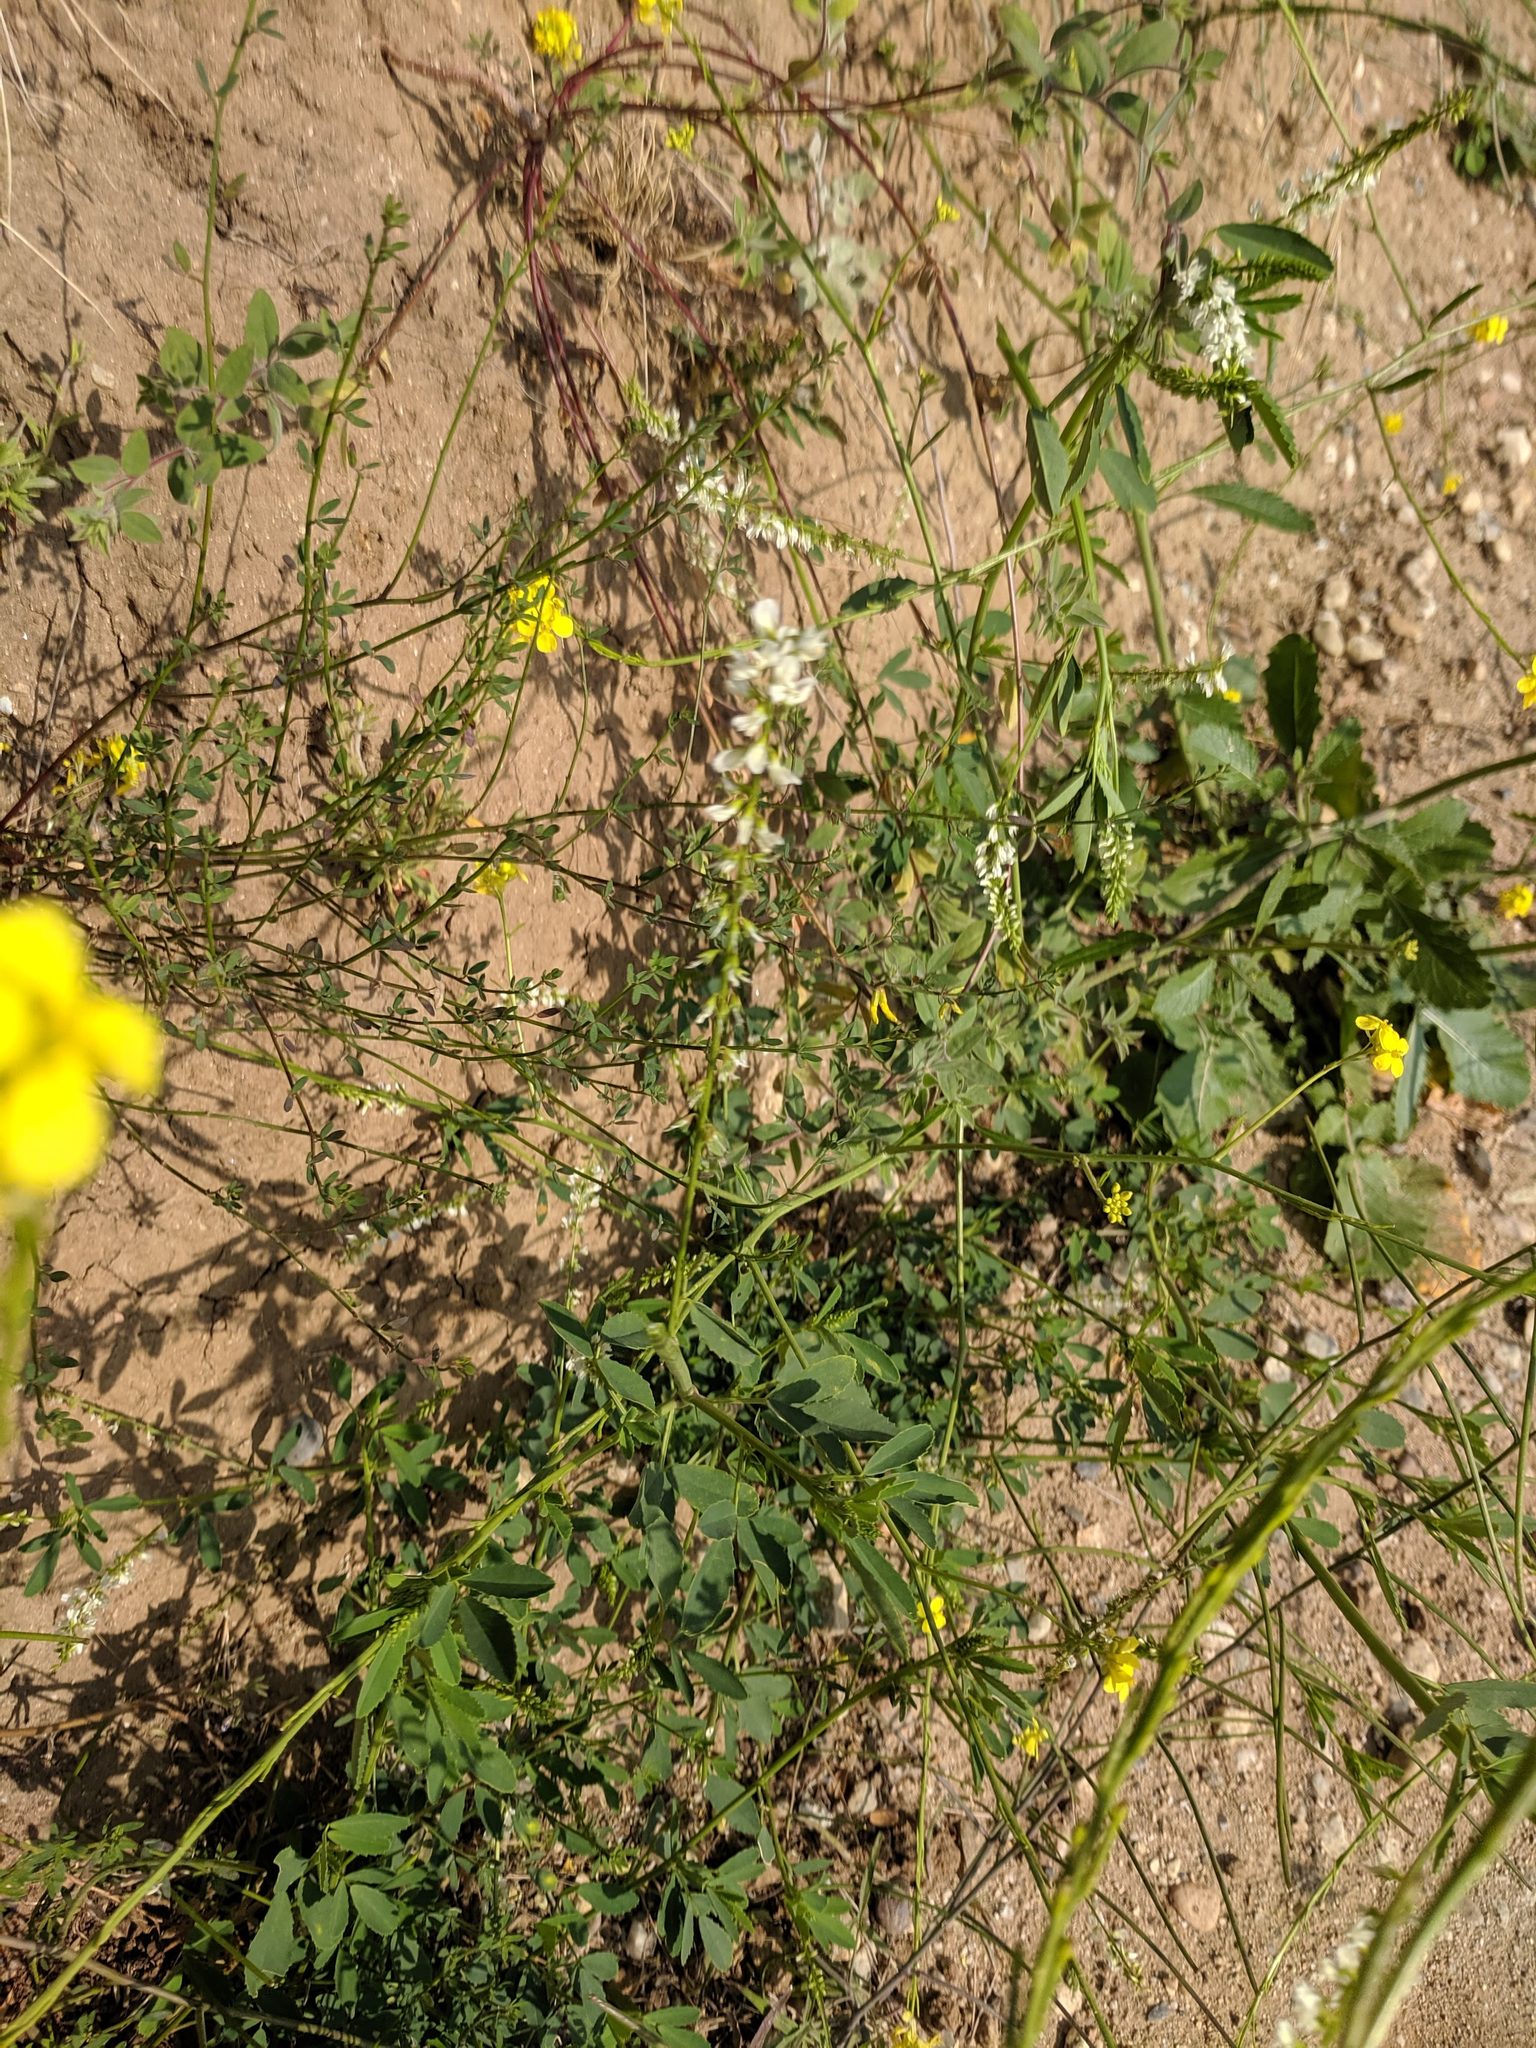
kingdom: Plantae
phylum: Tracheophyta
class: Magnoliopsida
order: Fabales
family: Fabaceae
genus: Melilotus
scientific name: Melilotus albus
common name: White melilot
